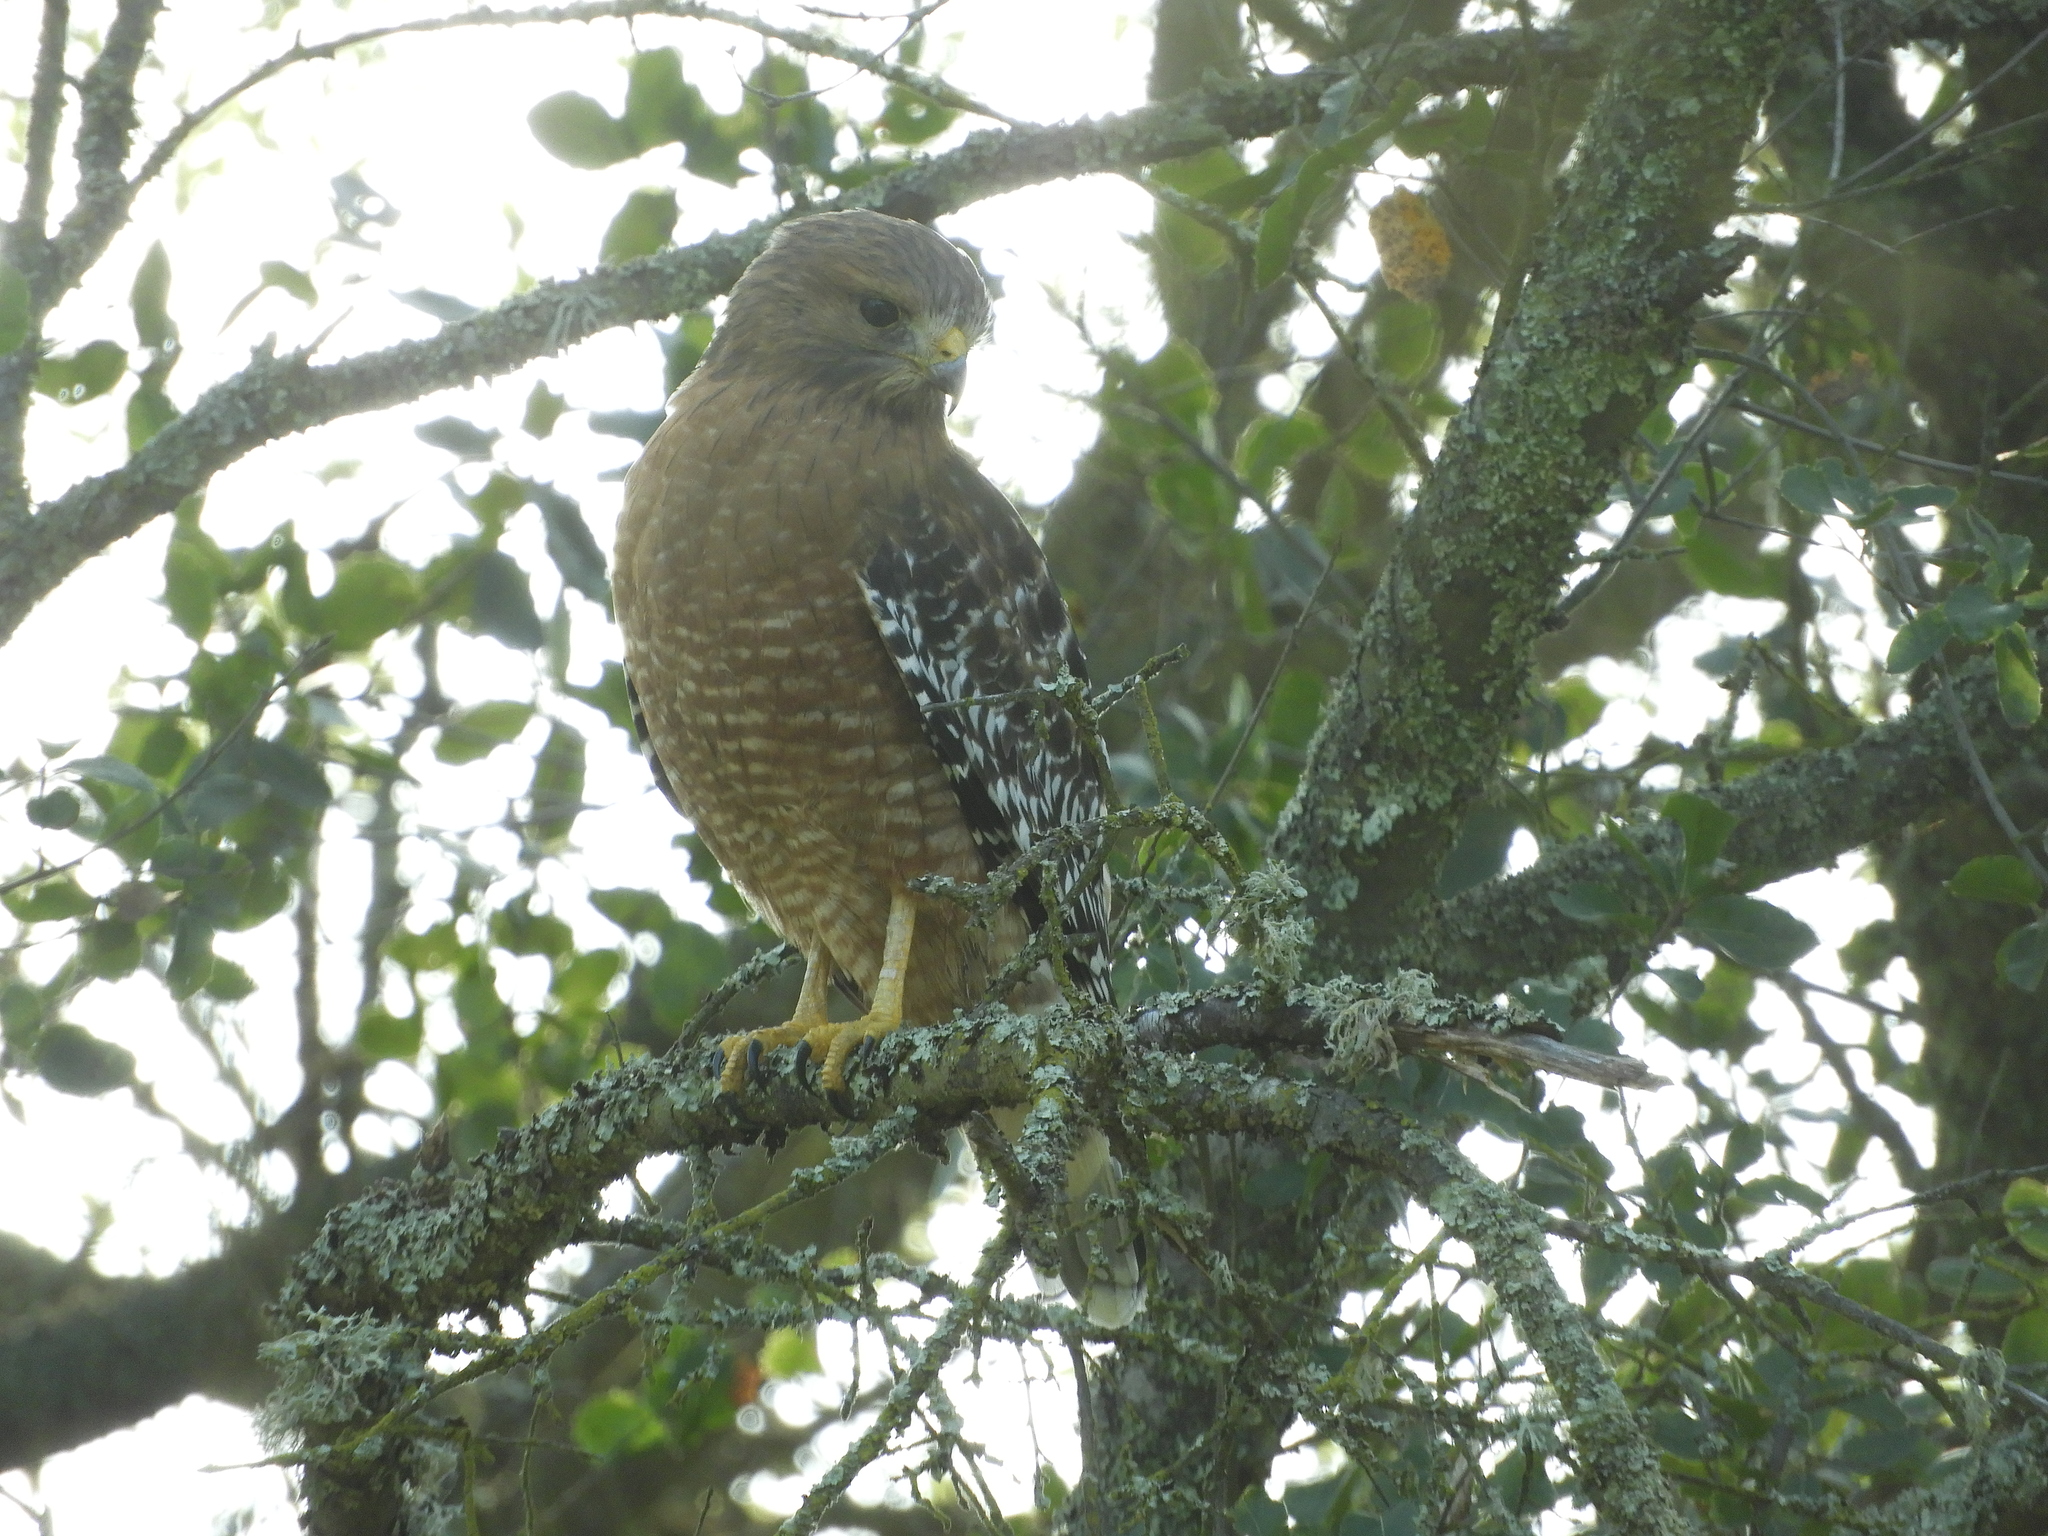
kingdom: Animalia
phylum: Chordata
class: Aves
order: Accipitriformes
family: Accipitridae
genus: Buteo
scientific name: Buteo lineatus
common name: Red-shouldered hawk
